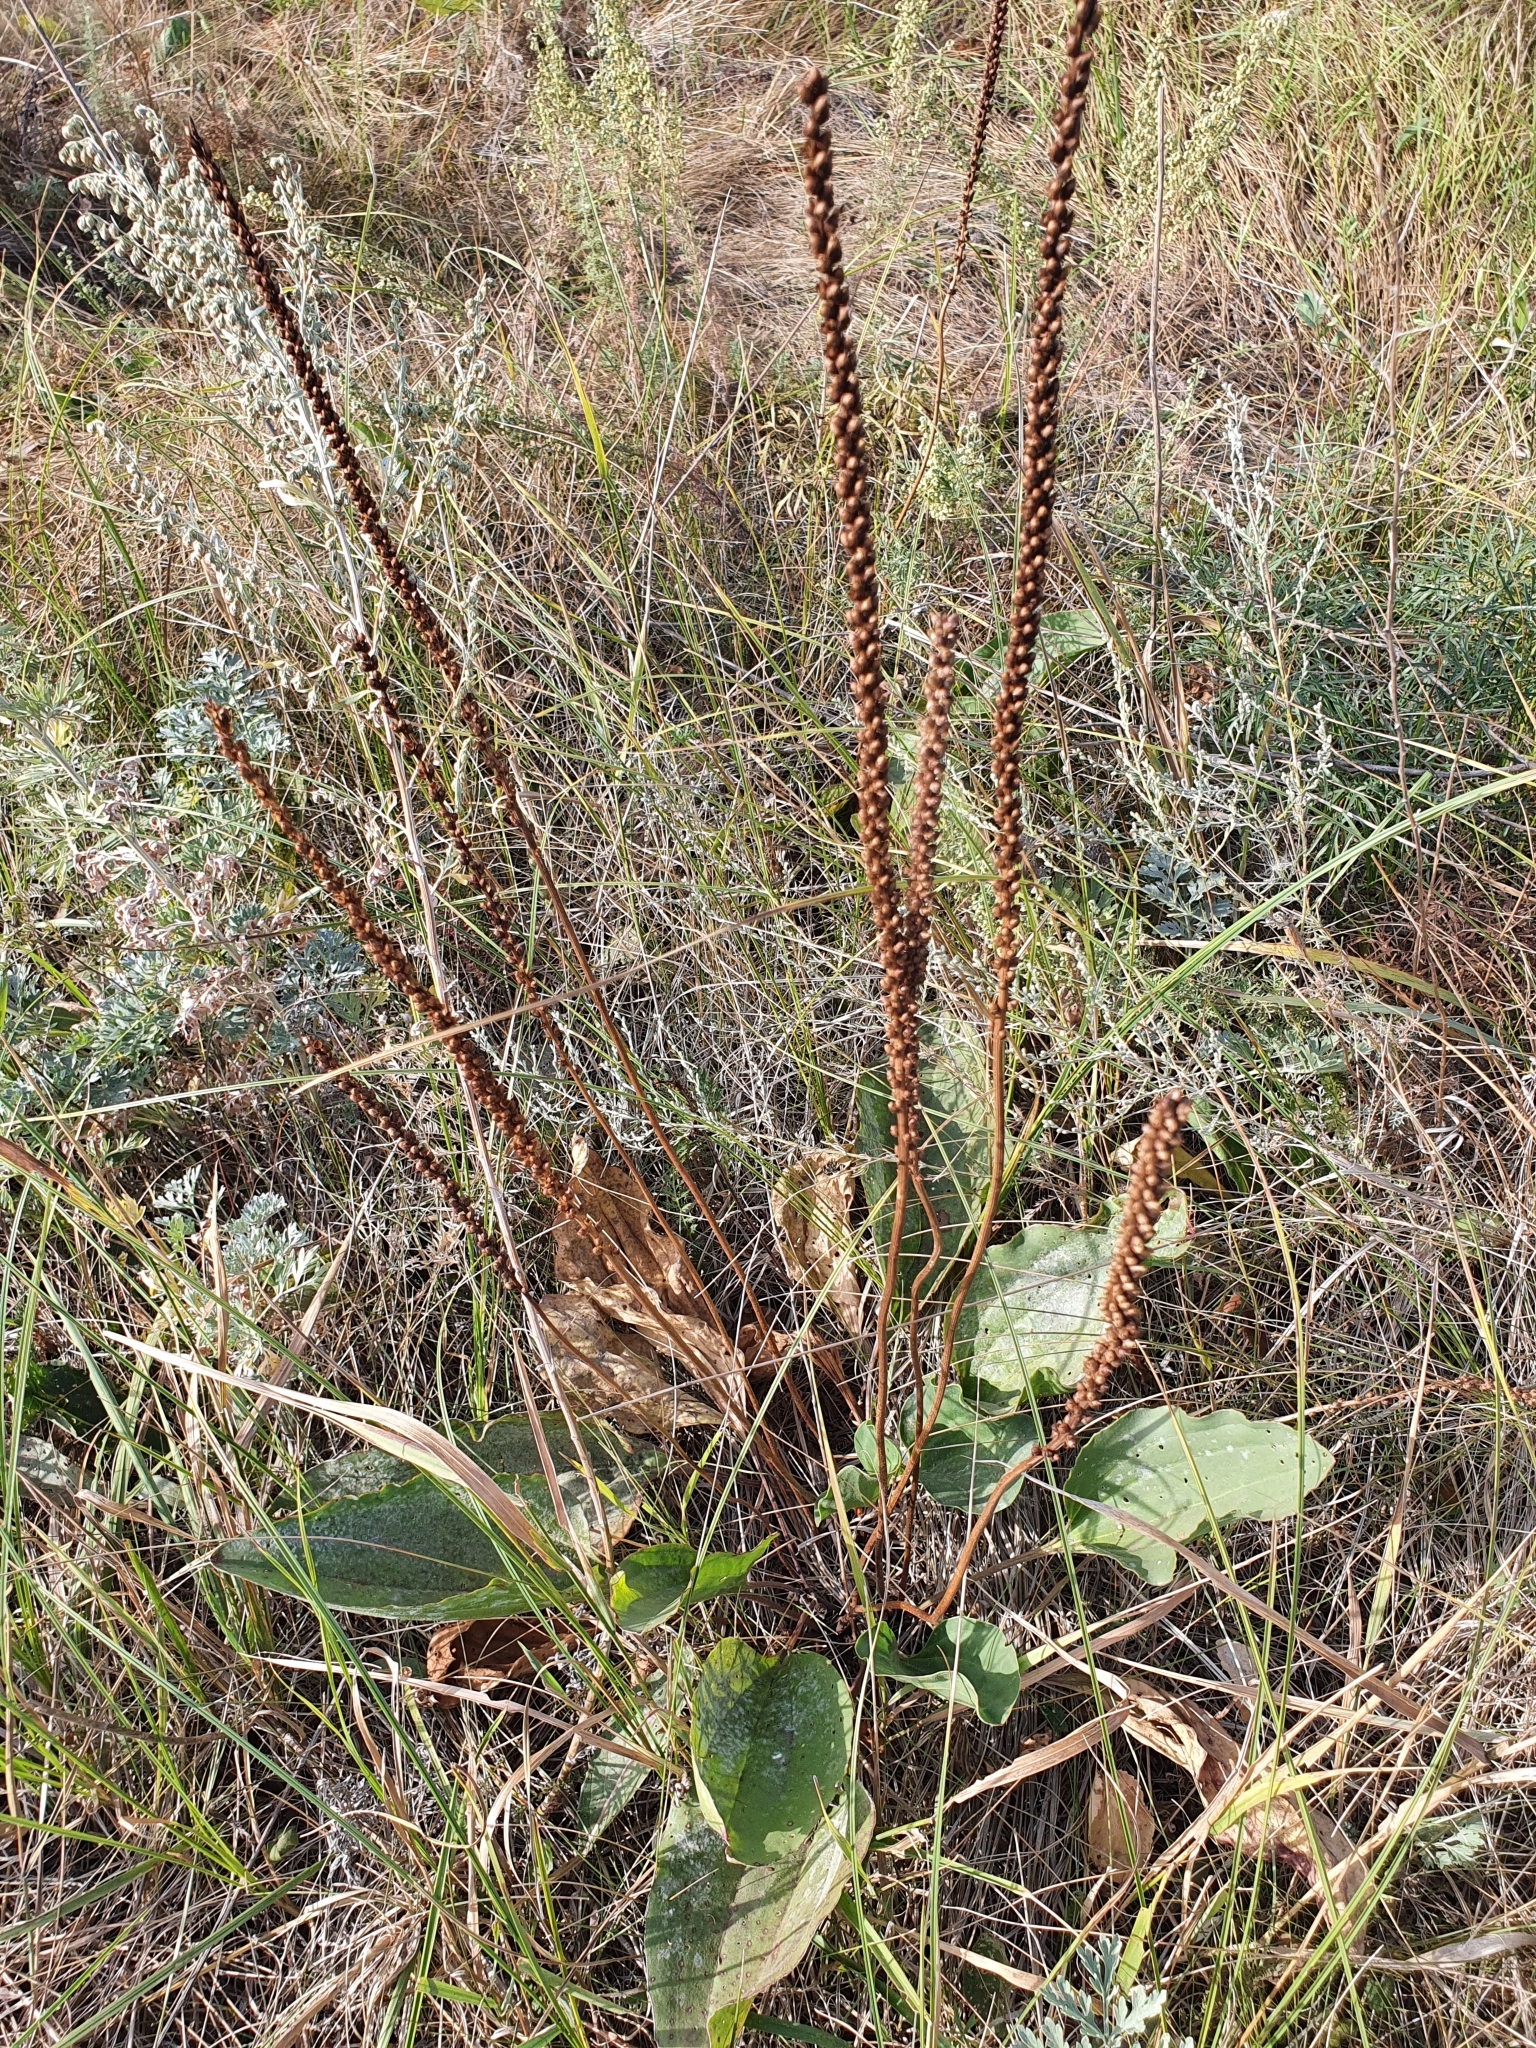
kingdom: Plantae
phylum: Tracheophyta
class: Magnoliopsida
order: Lamiales
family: Plantaginaceae
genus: Plantago
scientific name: Plantago cornuti
